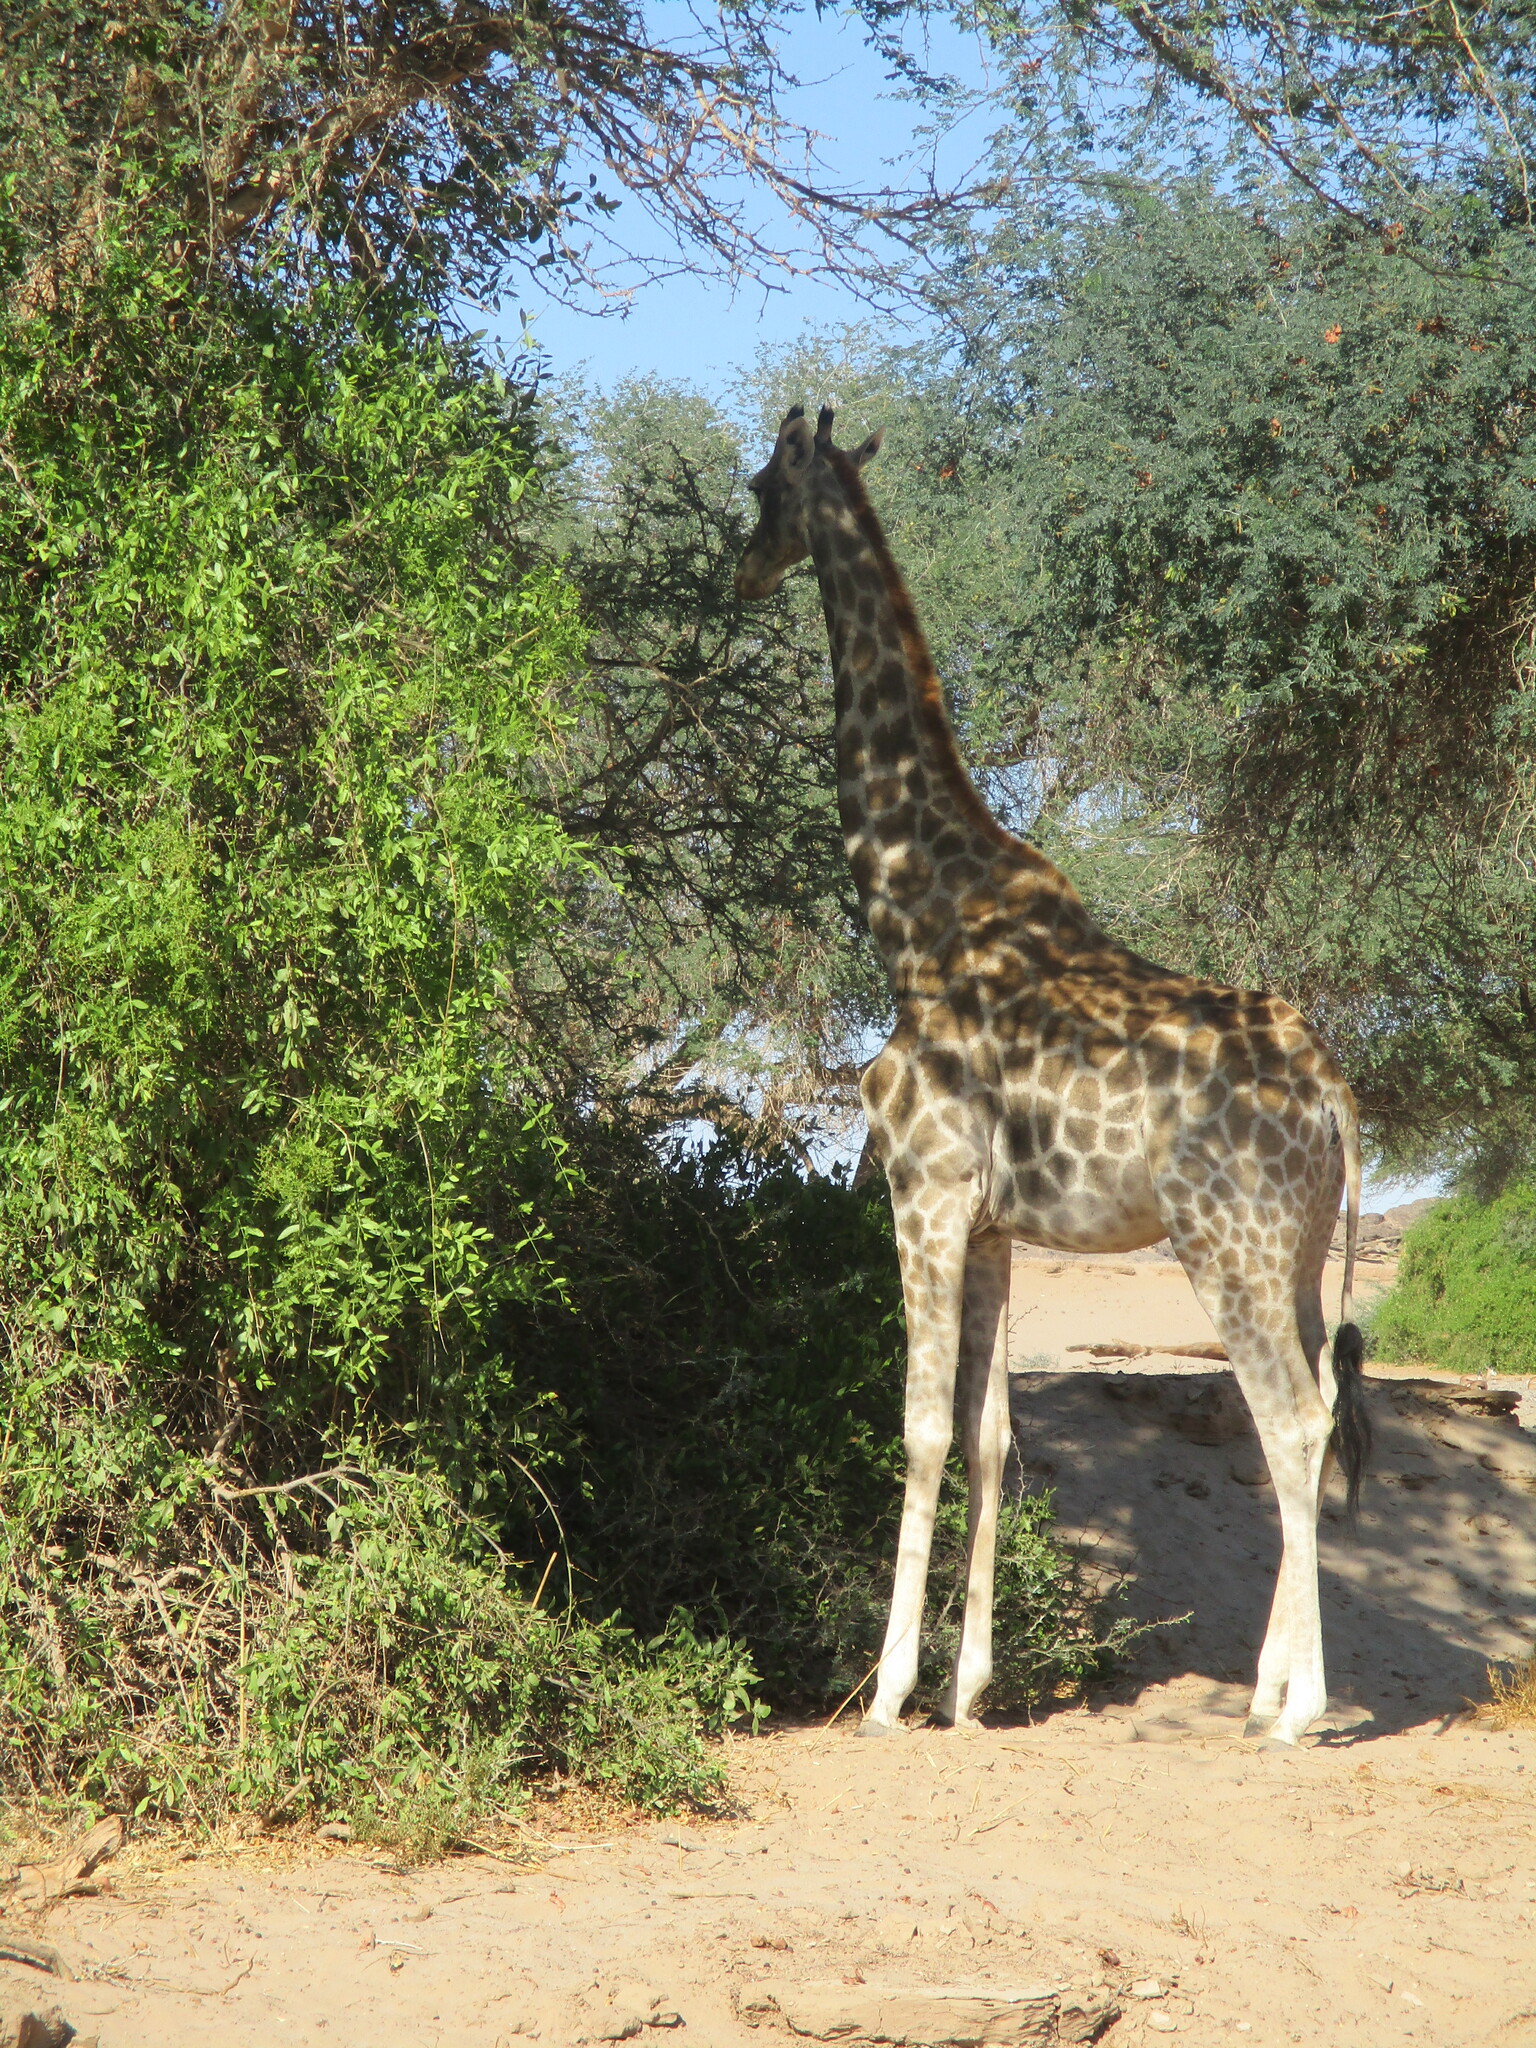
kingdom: Animalia
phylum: Chordata
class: Mammalia
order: Artiodactyla
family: Giraffidae
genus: Giraffa
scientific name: Giraffa giraffa
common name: Southern giraffe
